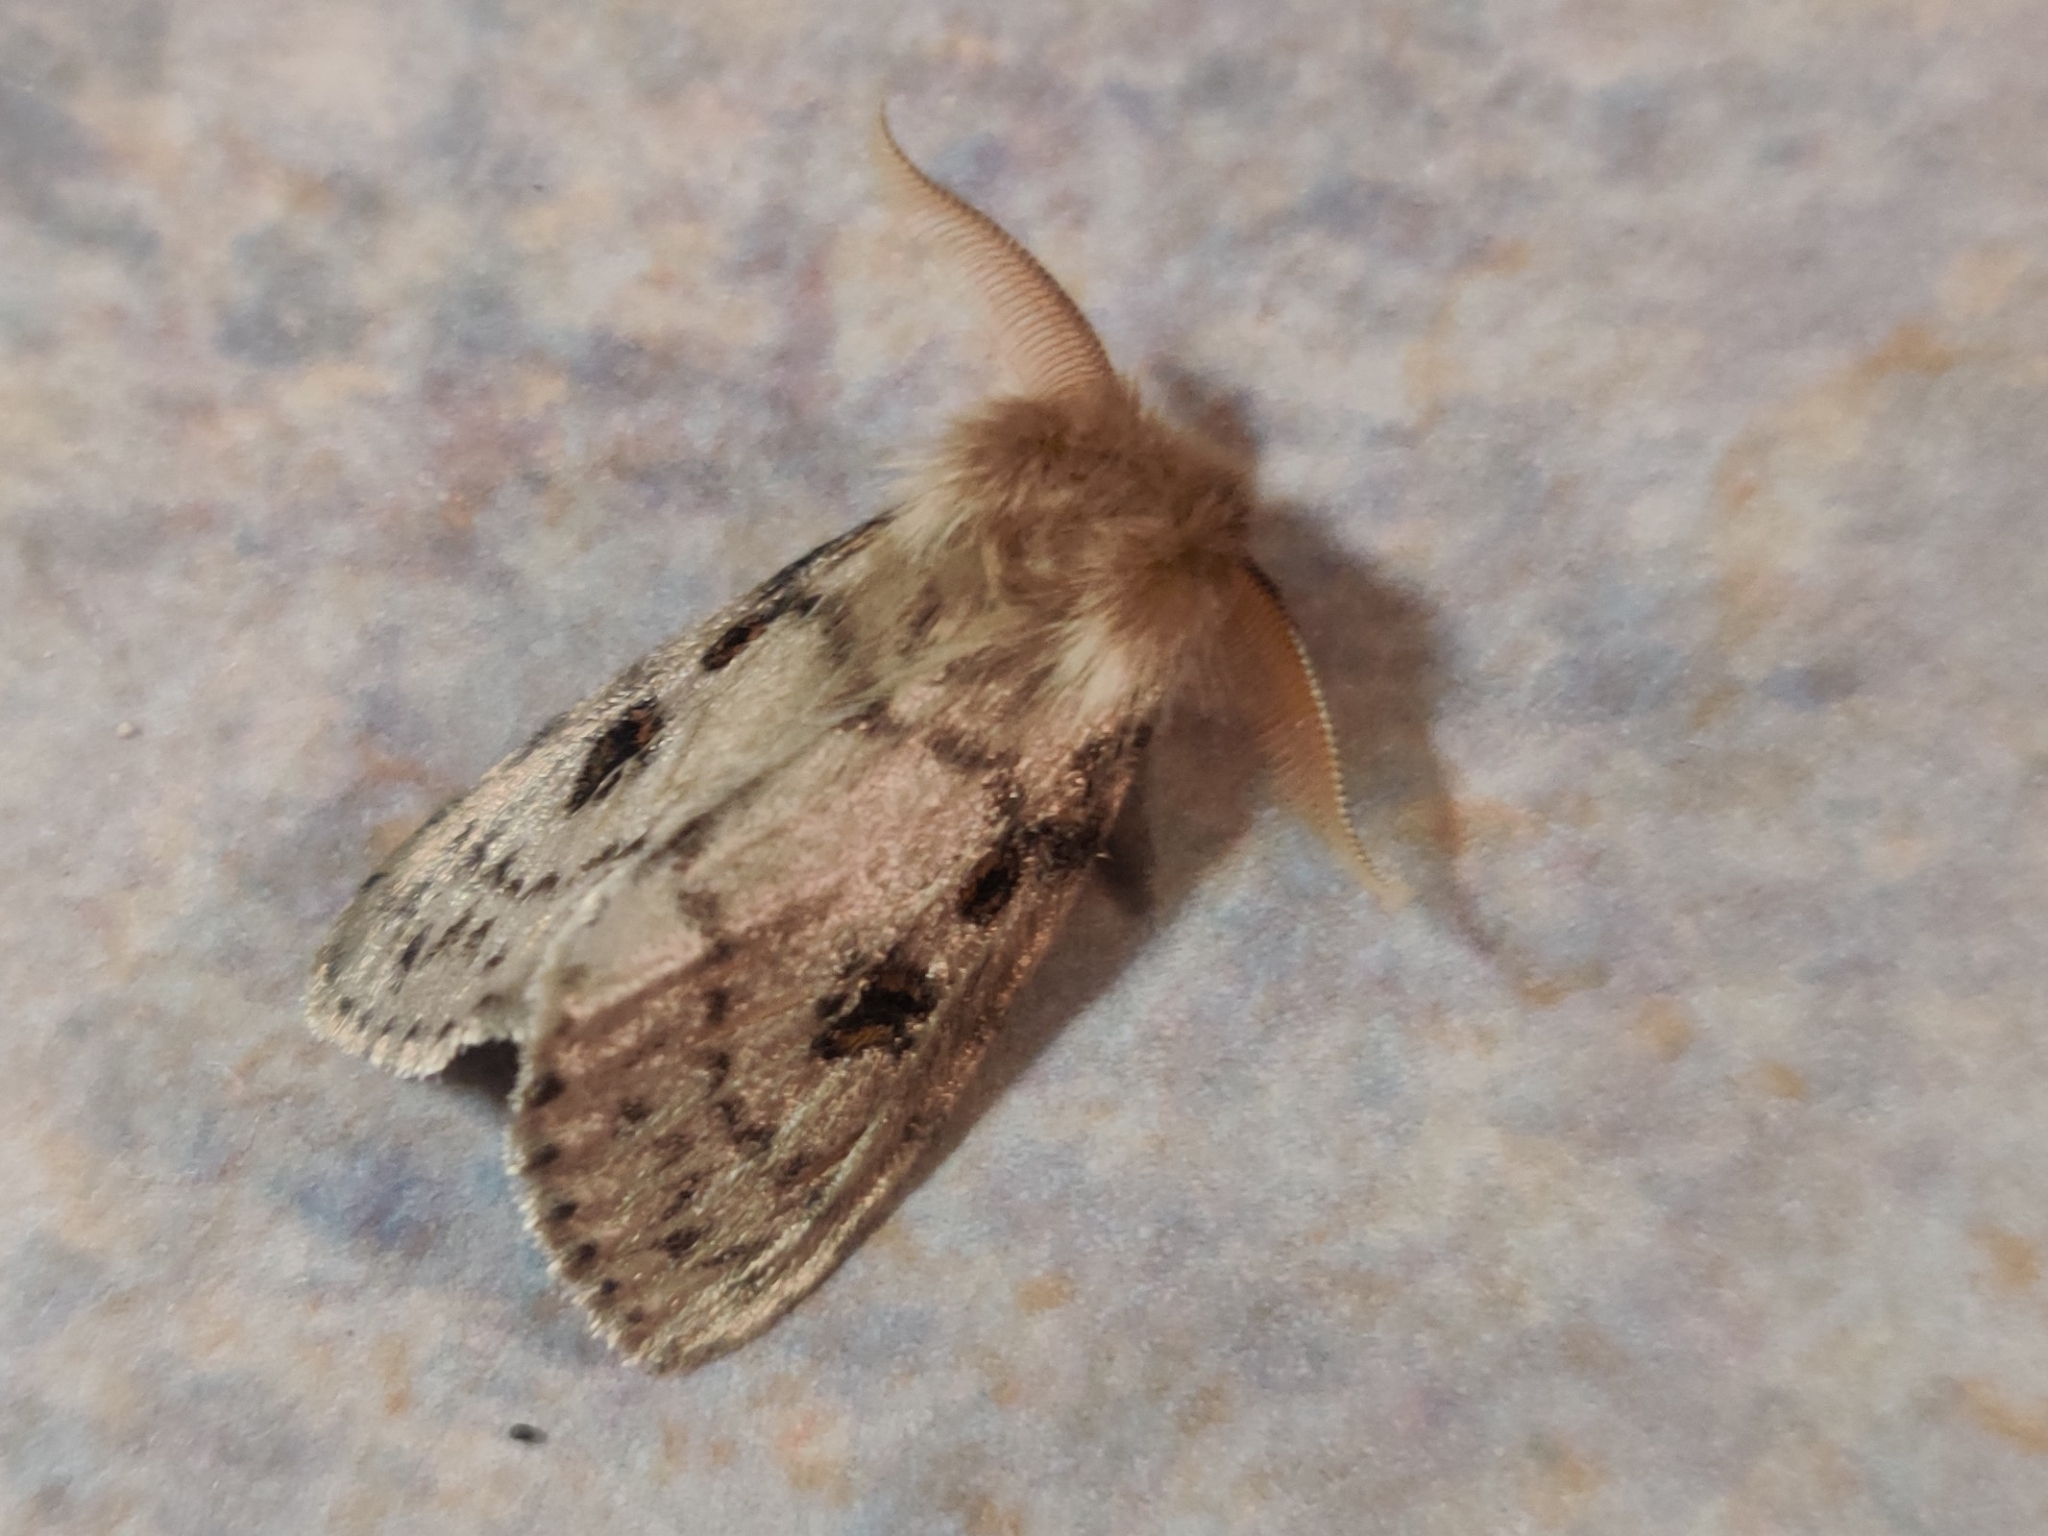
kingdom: Animalia
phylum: Arthropoda
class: Insecta
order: Lepidoptera
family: Erebidae
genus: Leptocneria
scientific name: Leptocneria reducta
